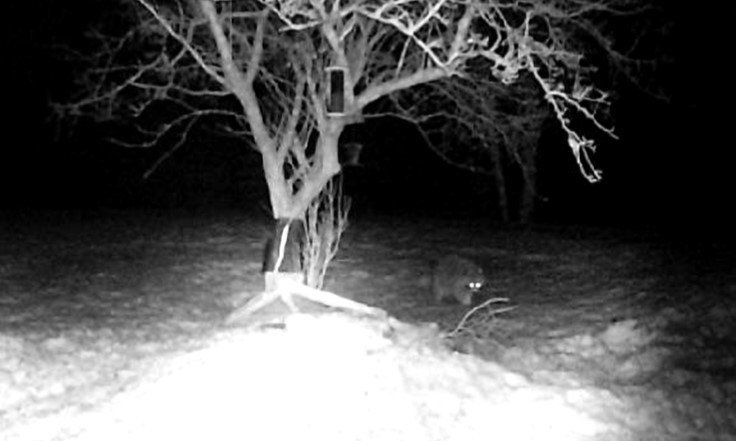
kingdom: Animalia
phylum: Chordata
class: Mammalia
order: Carnivora
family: Procyonidae
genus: Procyon
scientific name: Procyon lotor
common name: Raccoon
